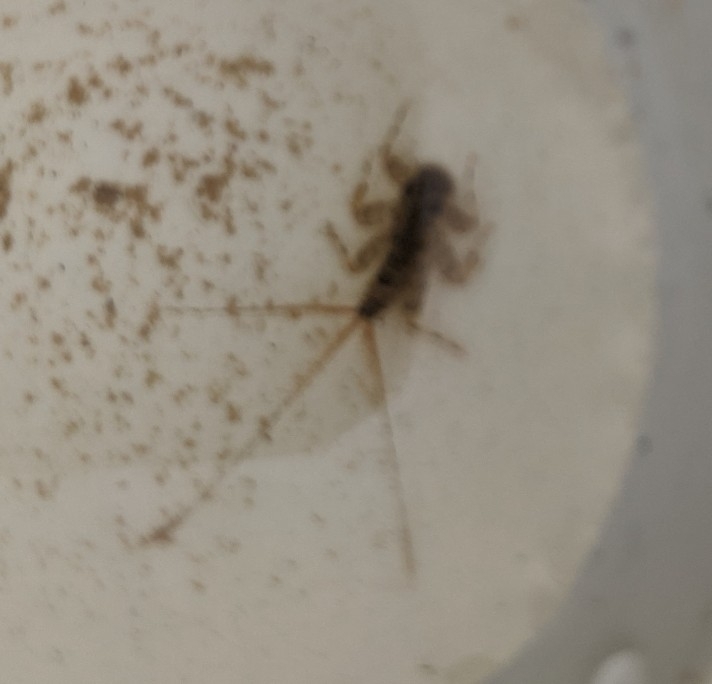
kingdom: Animalia
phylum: Arthropoda
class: Insecta
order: Ephemeroptera
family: Heptageniidae
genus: Maccaffertium
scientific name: Maccaffertium modestum
